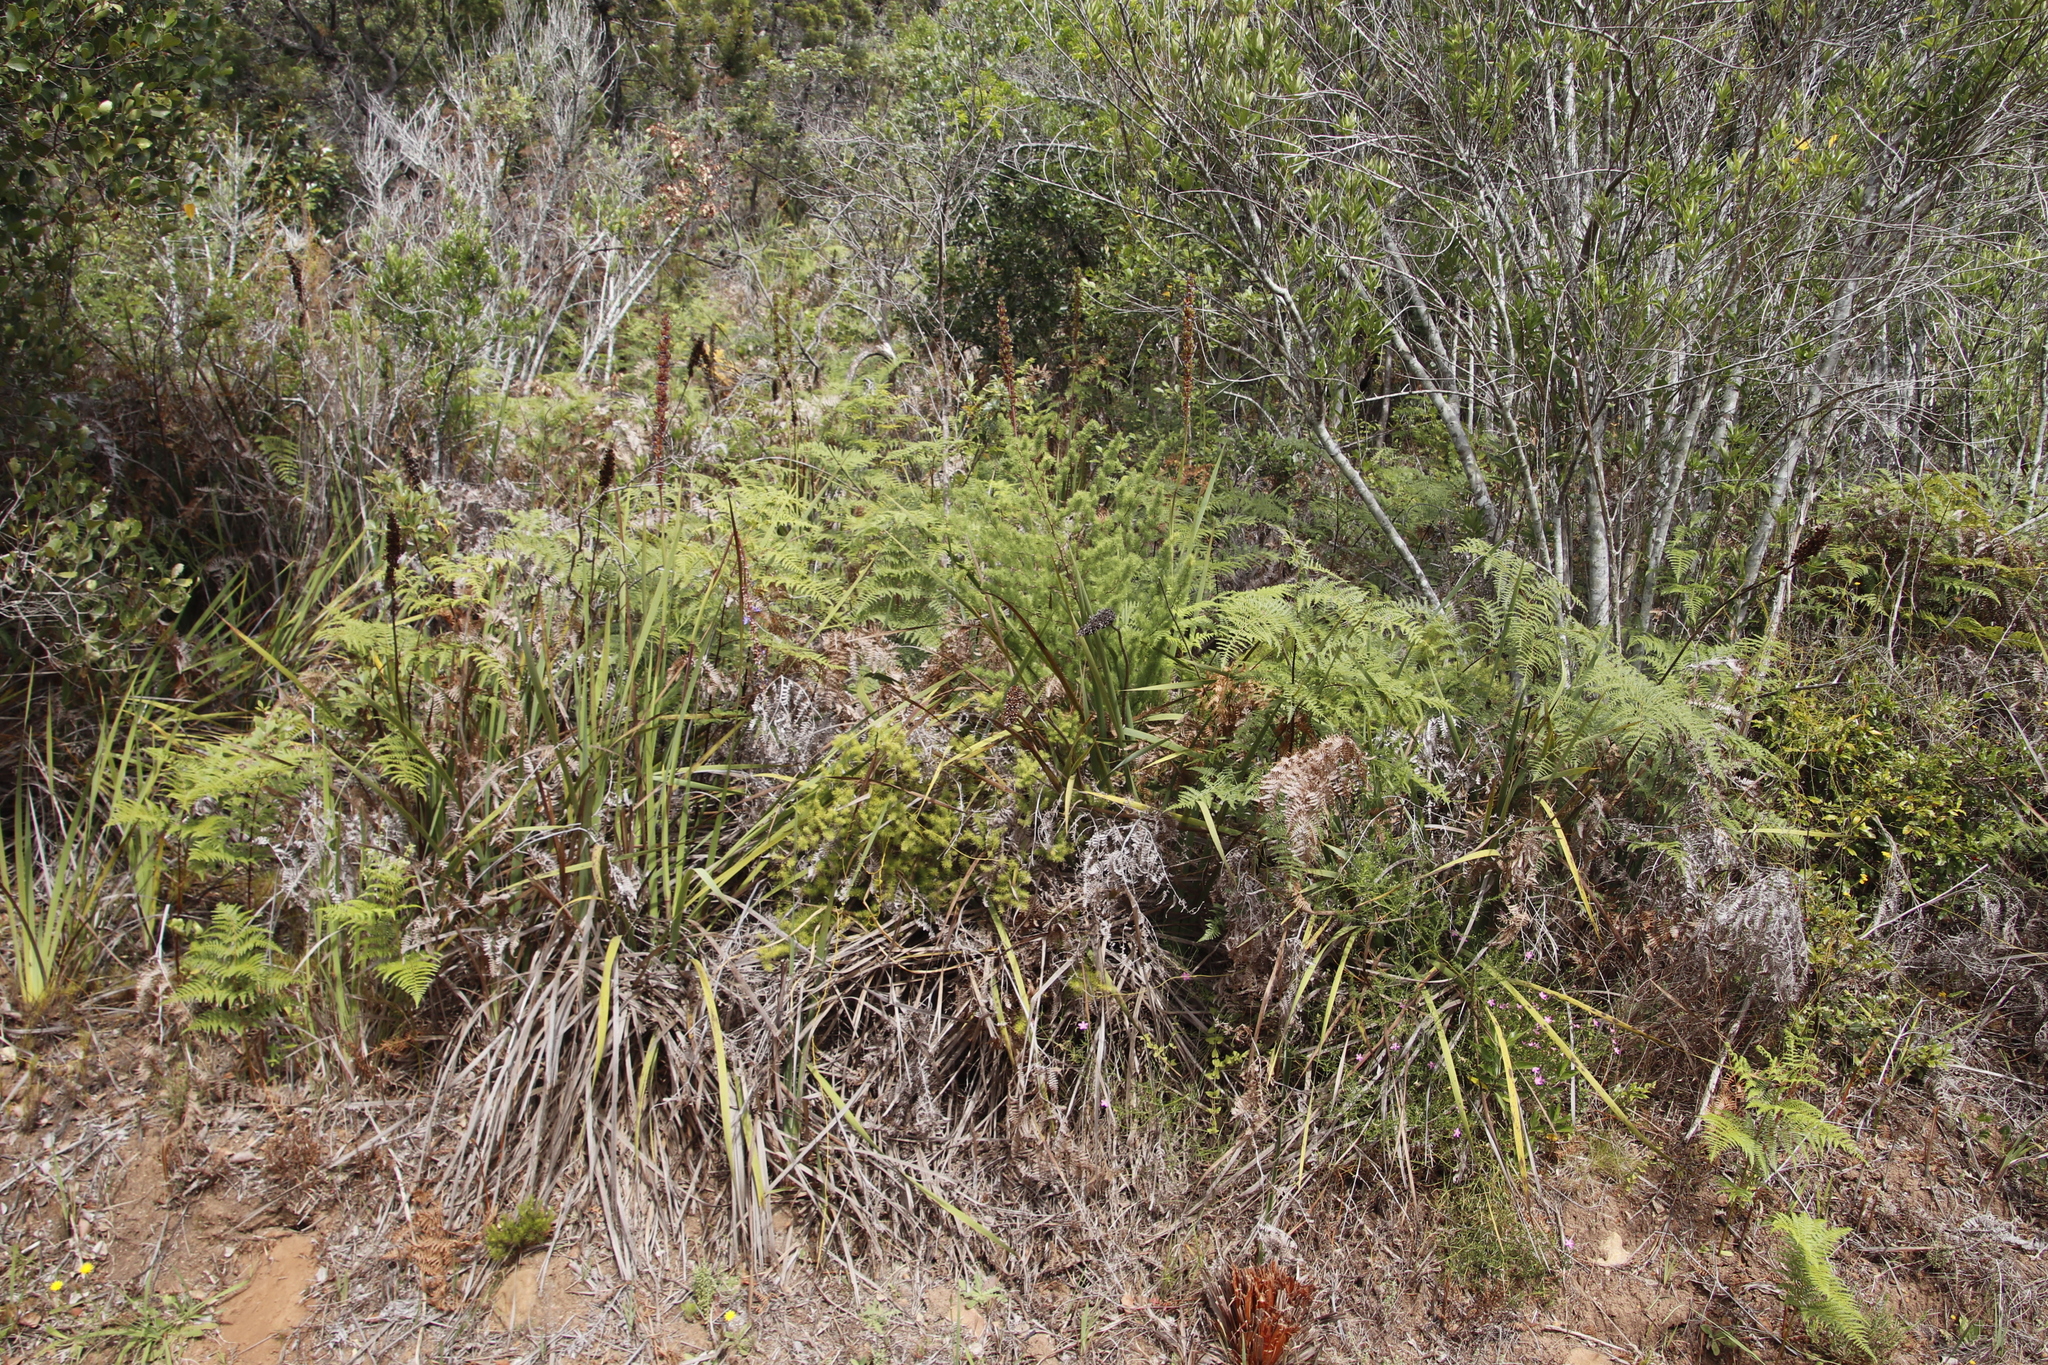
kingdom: Plantae
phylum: Tracheophyta
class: Polypodiopsida
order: Polypodiales
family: Dennstaedtiaceae
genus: Pteridium
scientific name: Pteridium aquilinum
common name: Bracken
